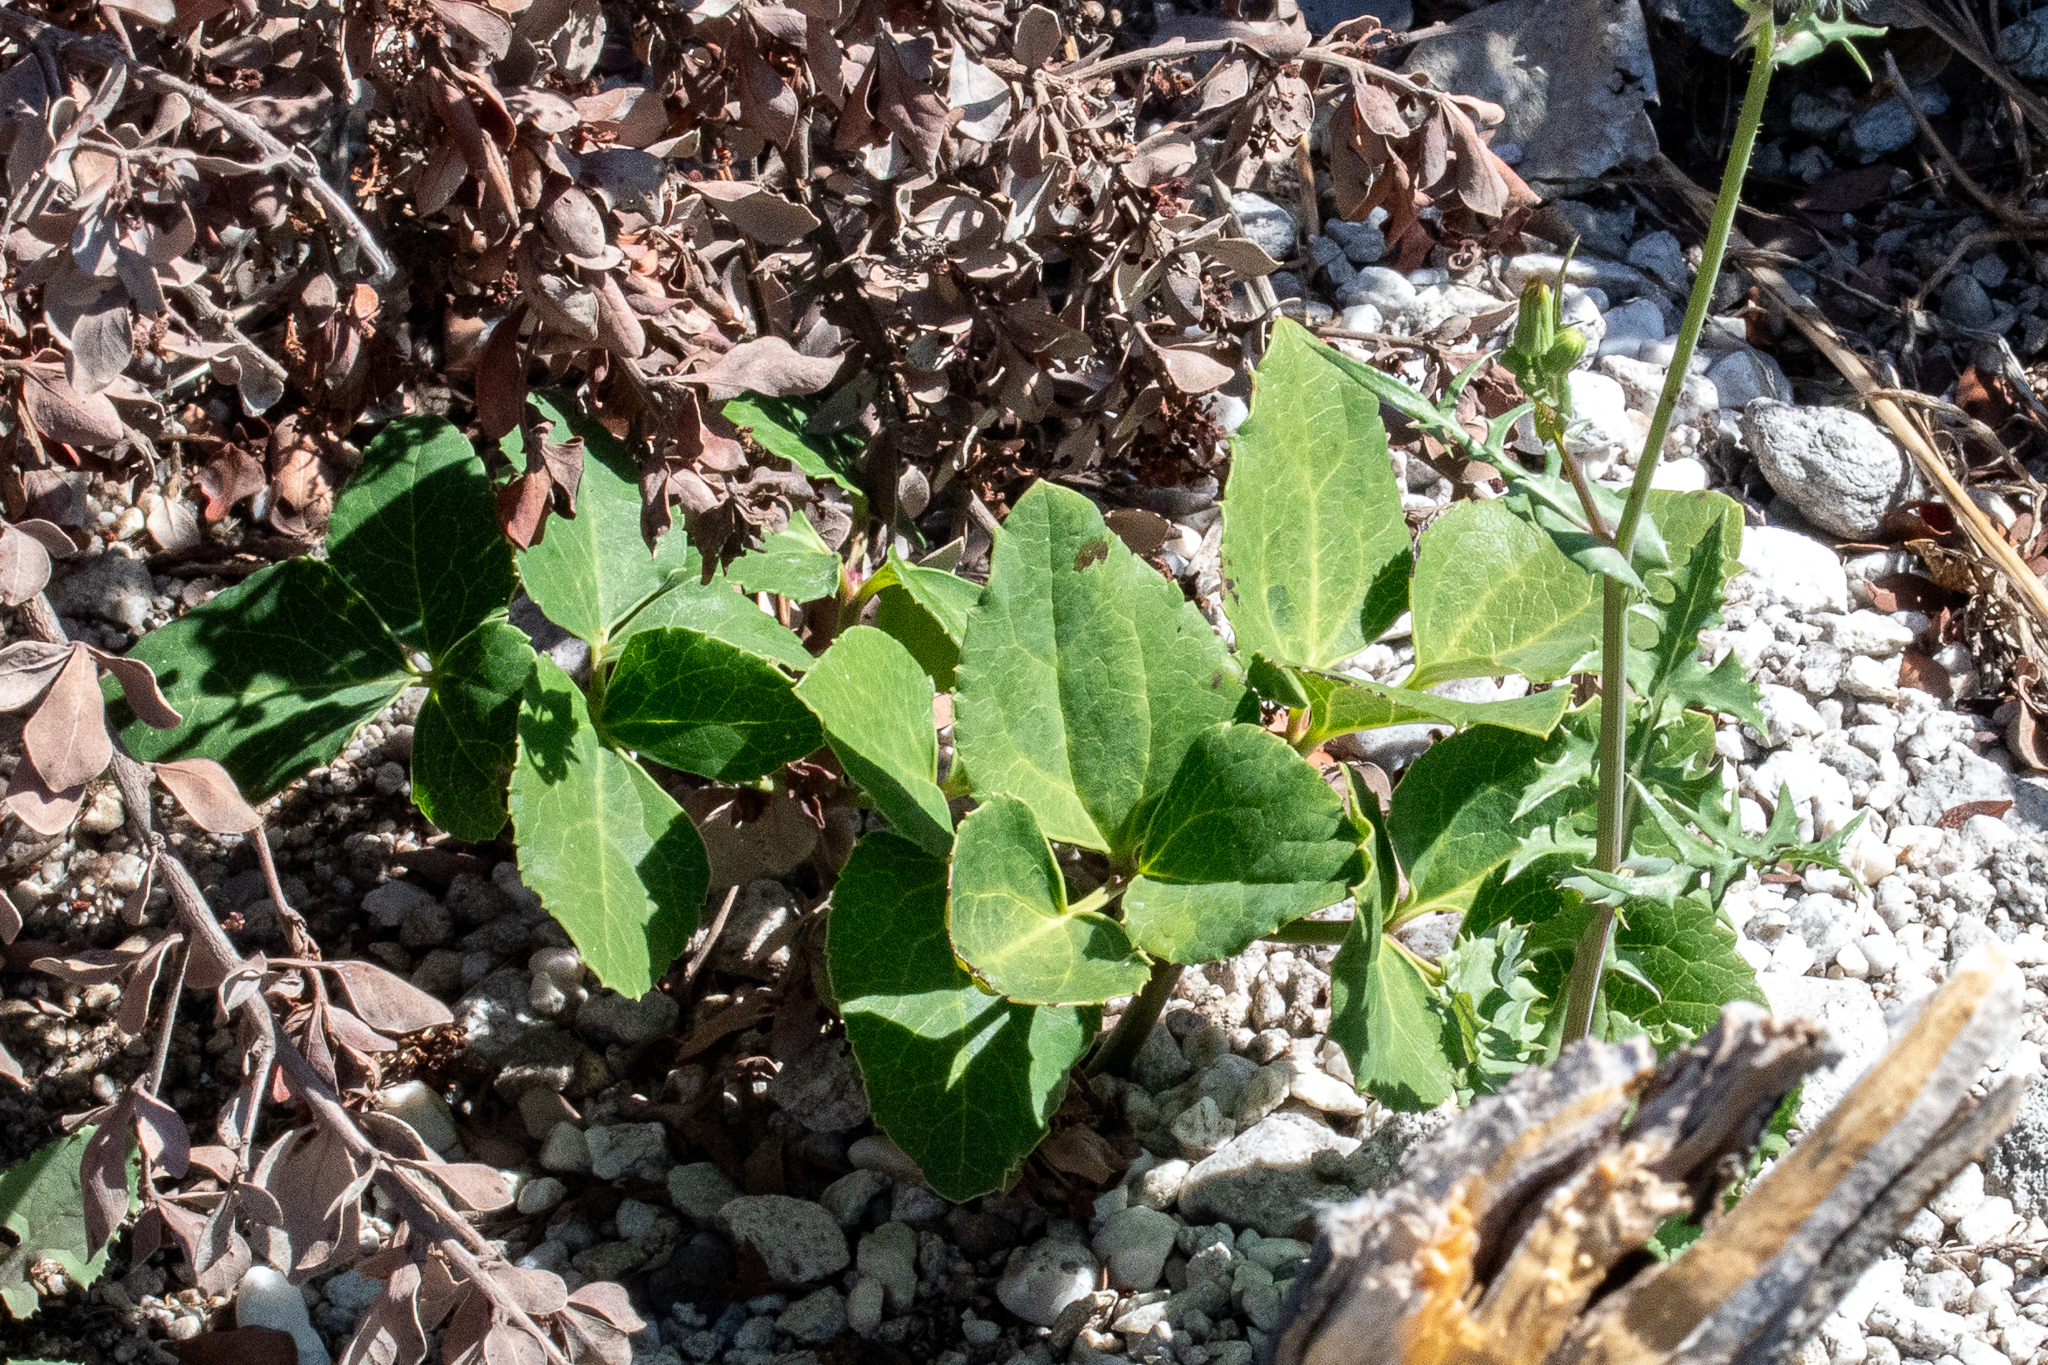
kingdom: Plantae
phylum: Tracheophyta
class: Magnoliopsida
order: Ranunculales
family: Ranunculaceae
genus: Knowltonia
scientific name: Knowltonia vesicatoria
